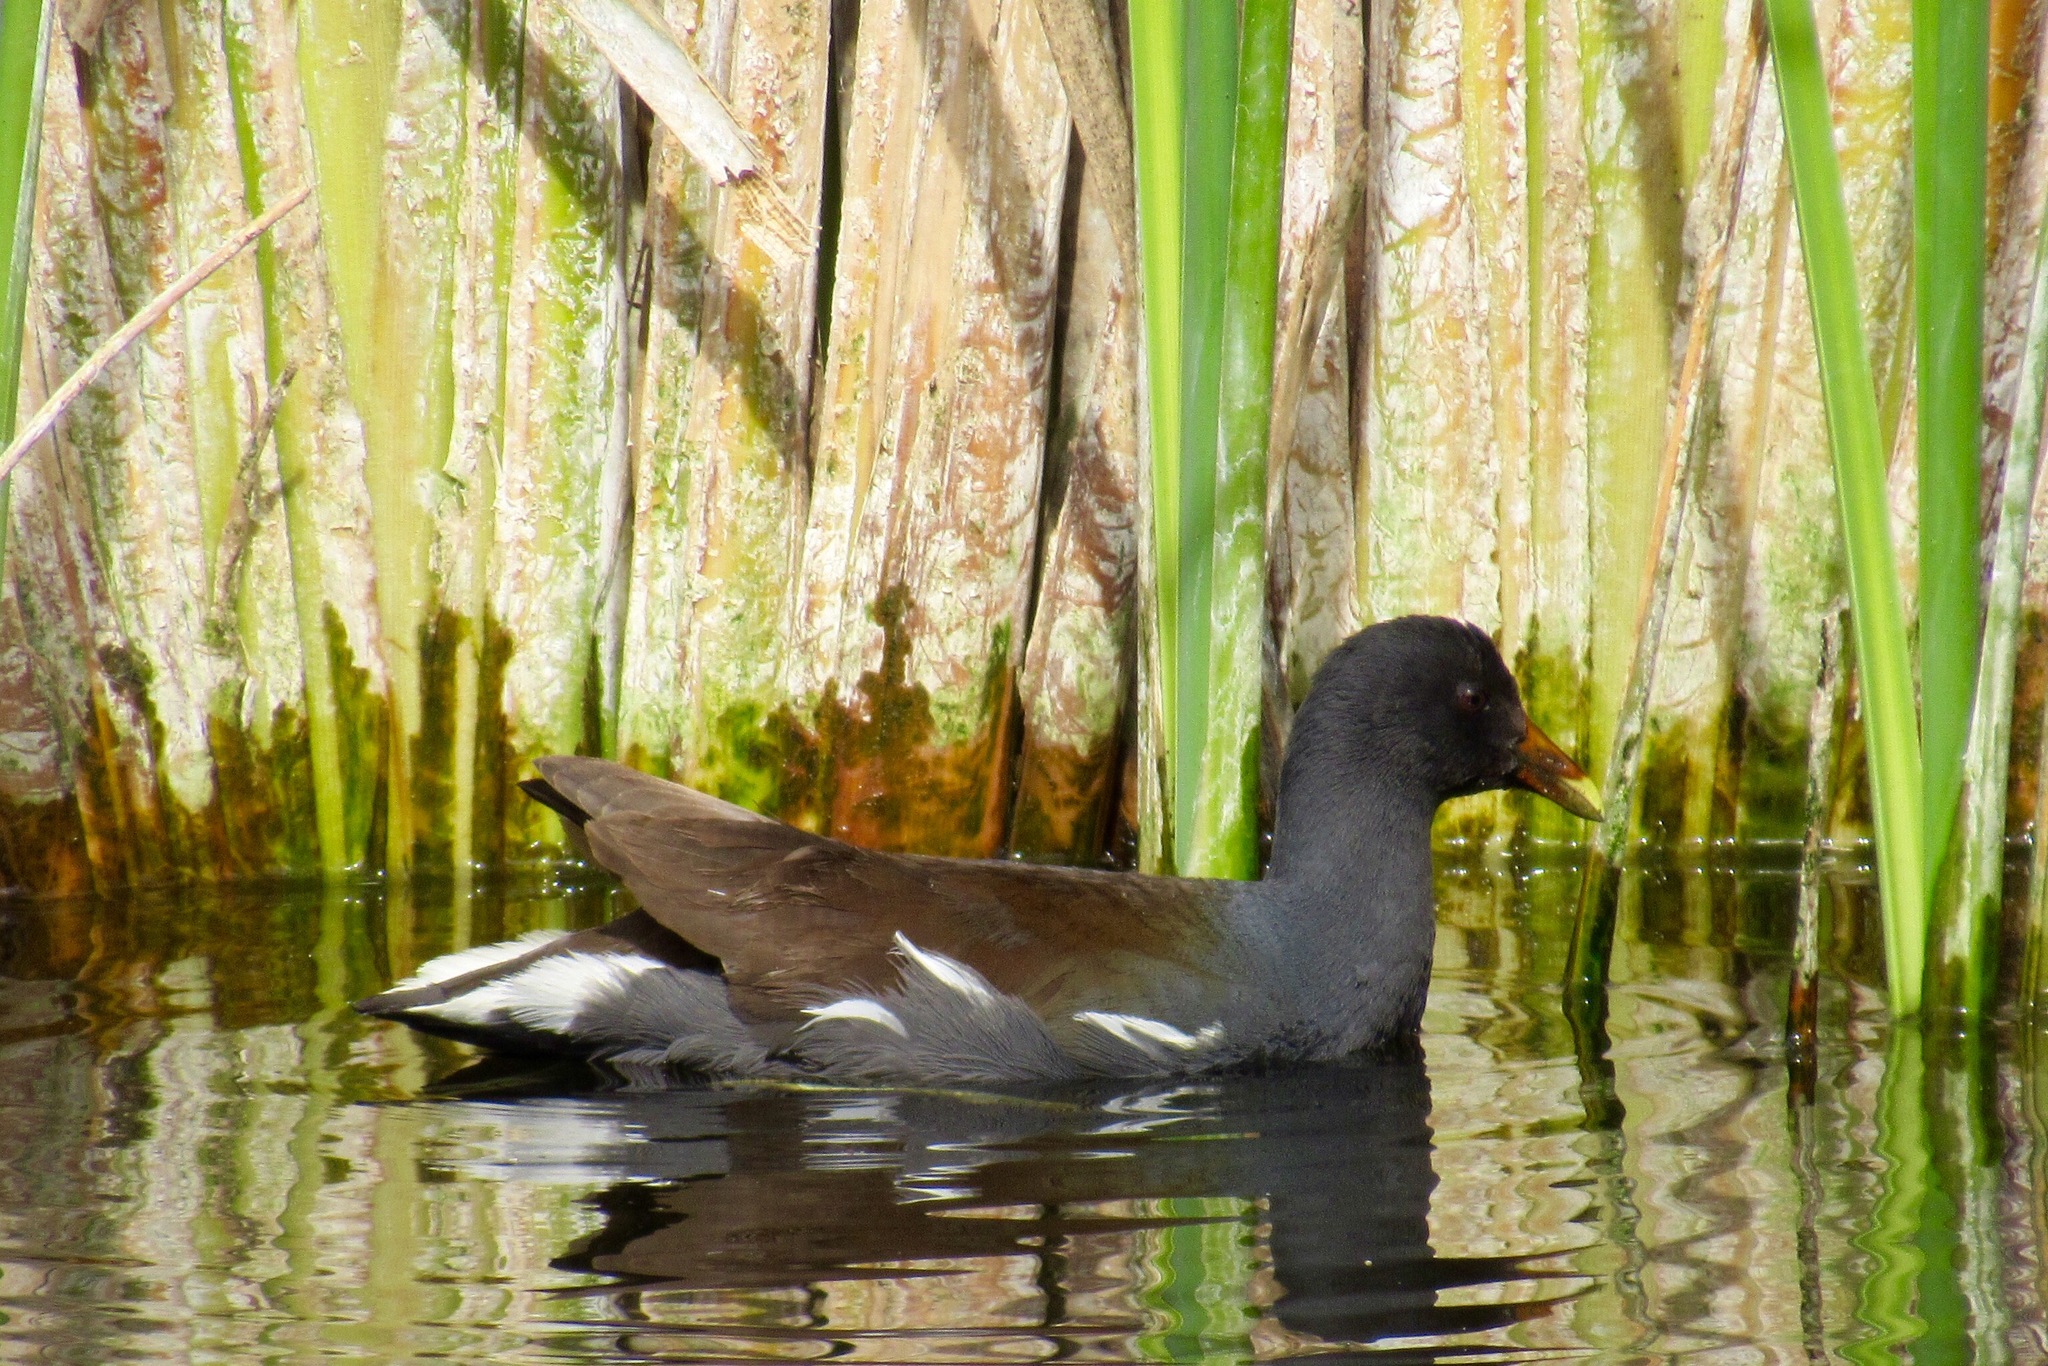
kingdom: Animalia
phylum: Chordata
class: Aves
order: Gruiformes
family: Rallidae
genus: Gallinula
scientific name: Gallinula chloropus
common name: Common moorhen
